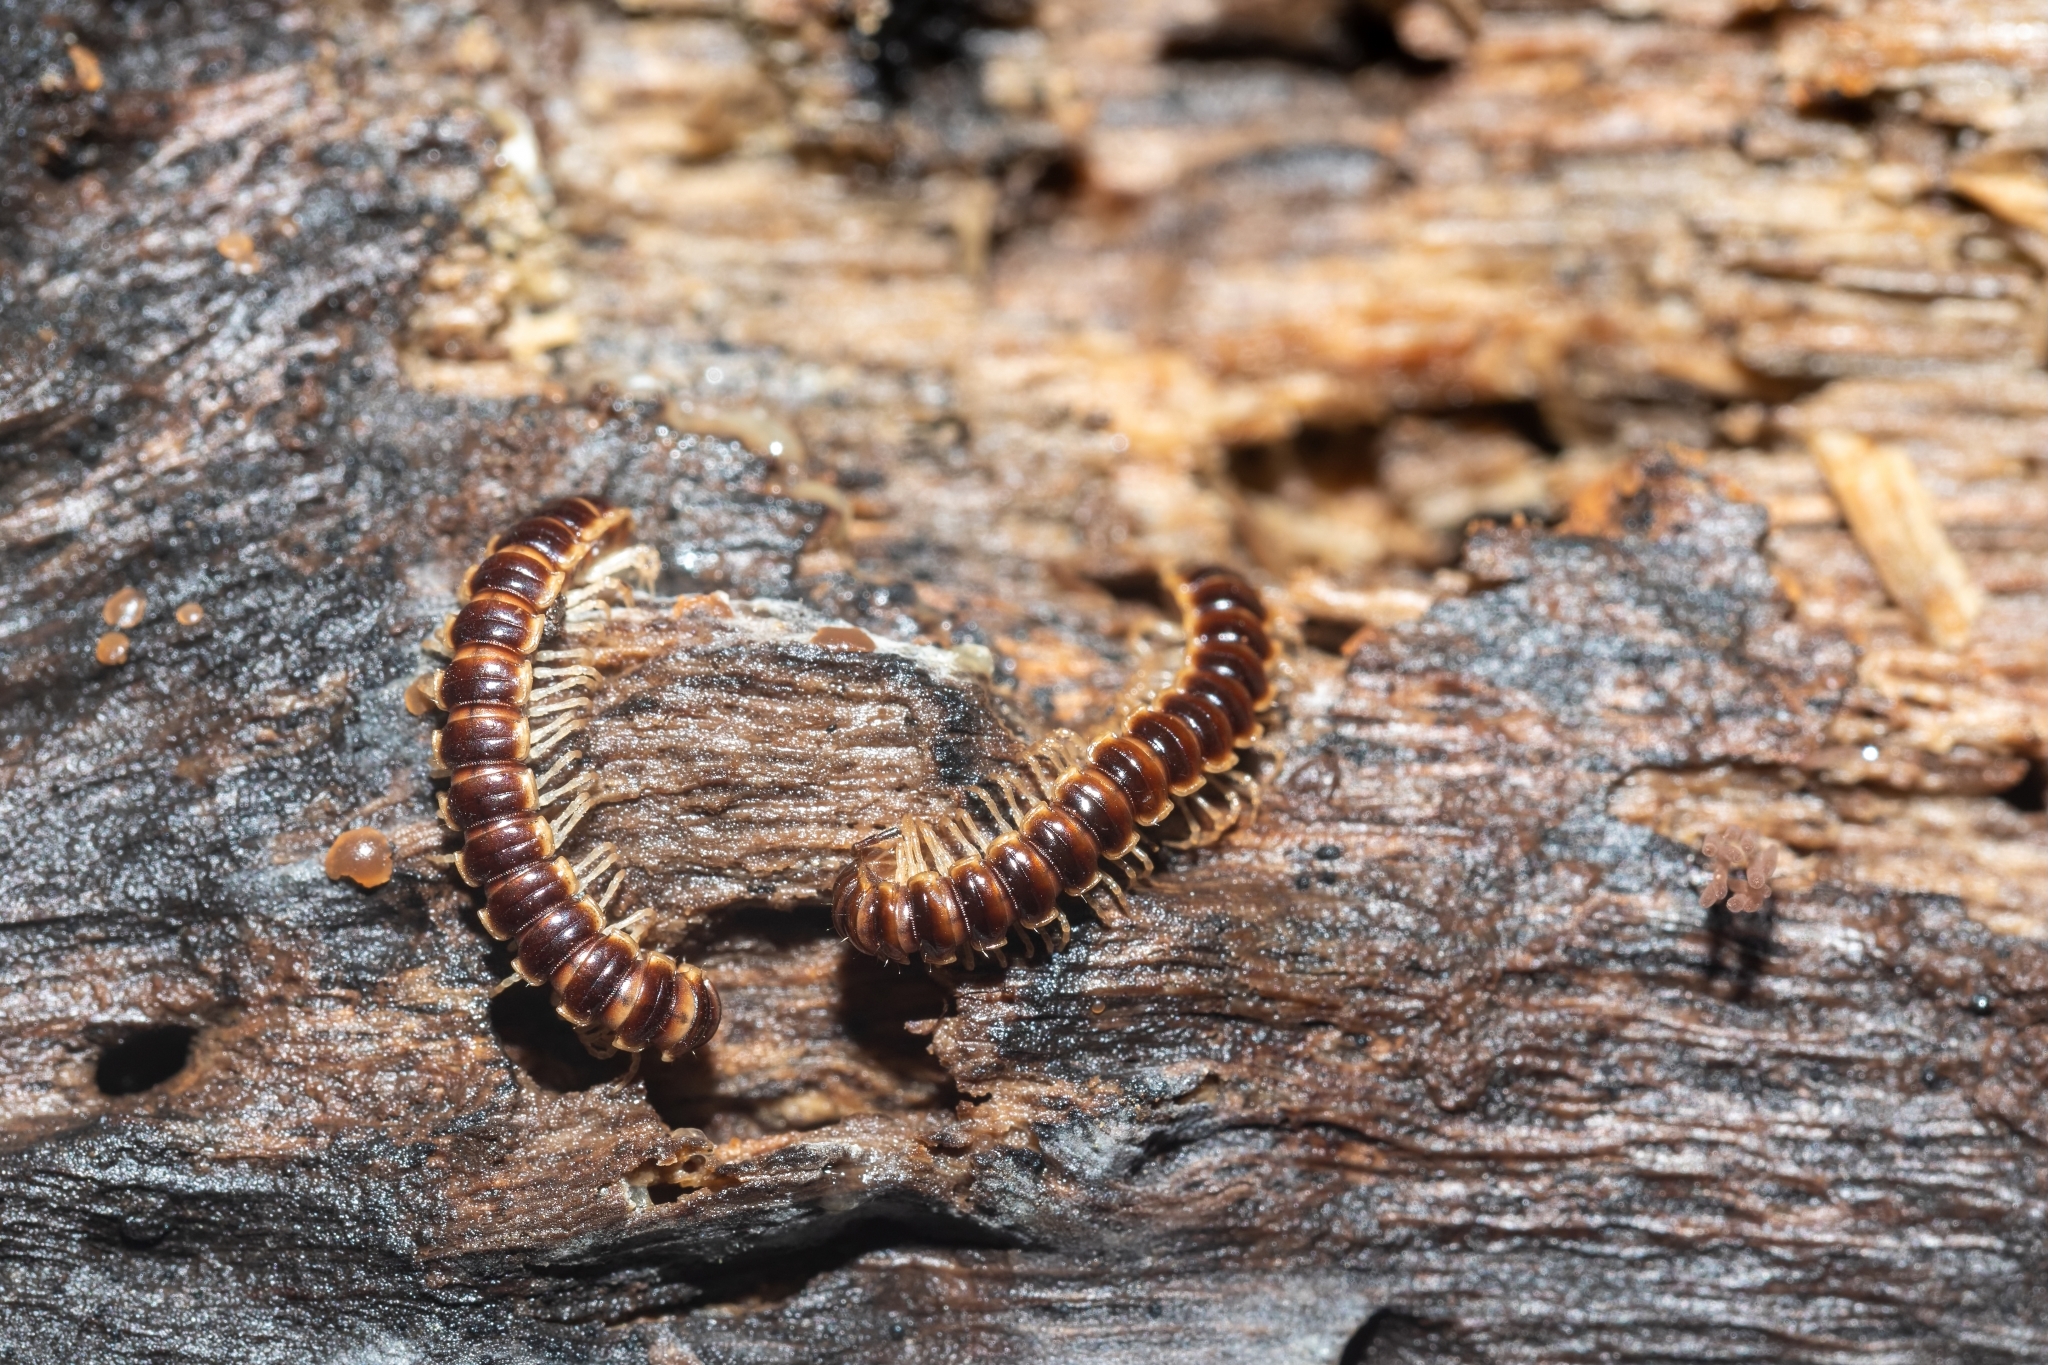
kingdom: Animalia
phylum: Arthropoda
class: Diplopoda
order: Polydesmida
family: Paradoxosomatidae
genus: Oxidus
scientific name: Oxidus gracilis
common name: Greenhouse millipede
